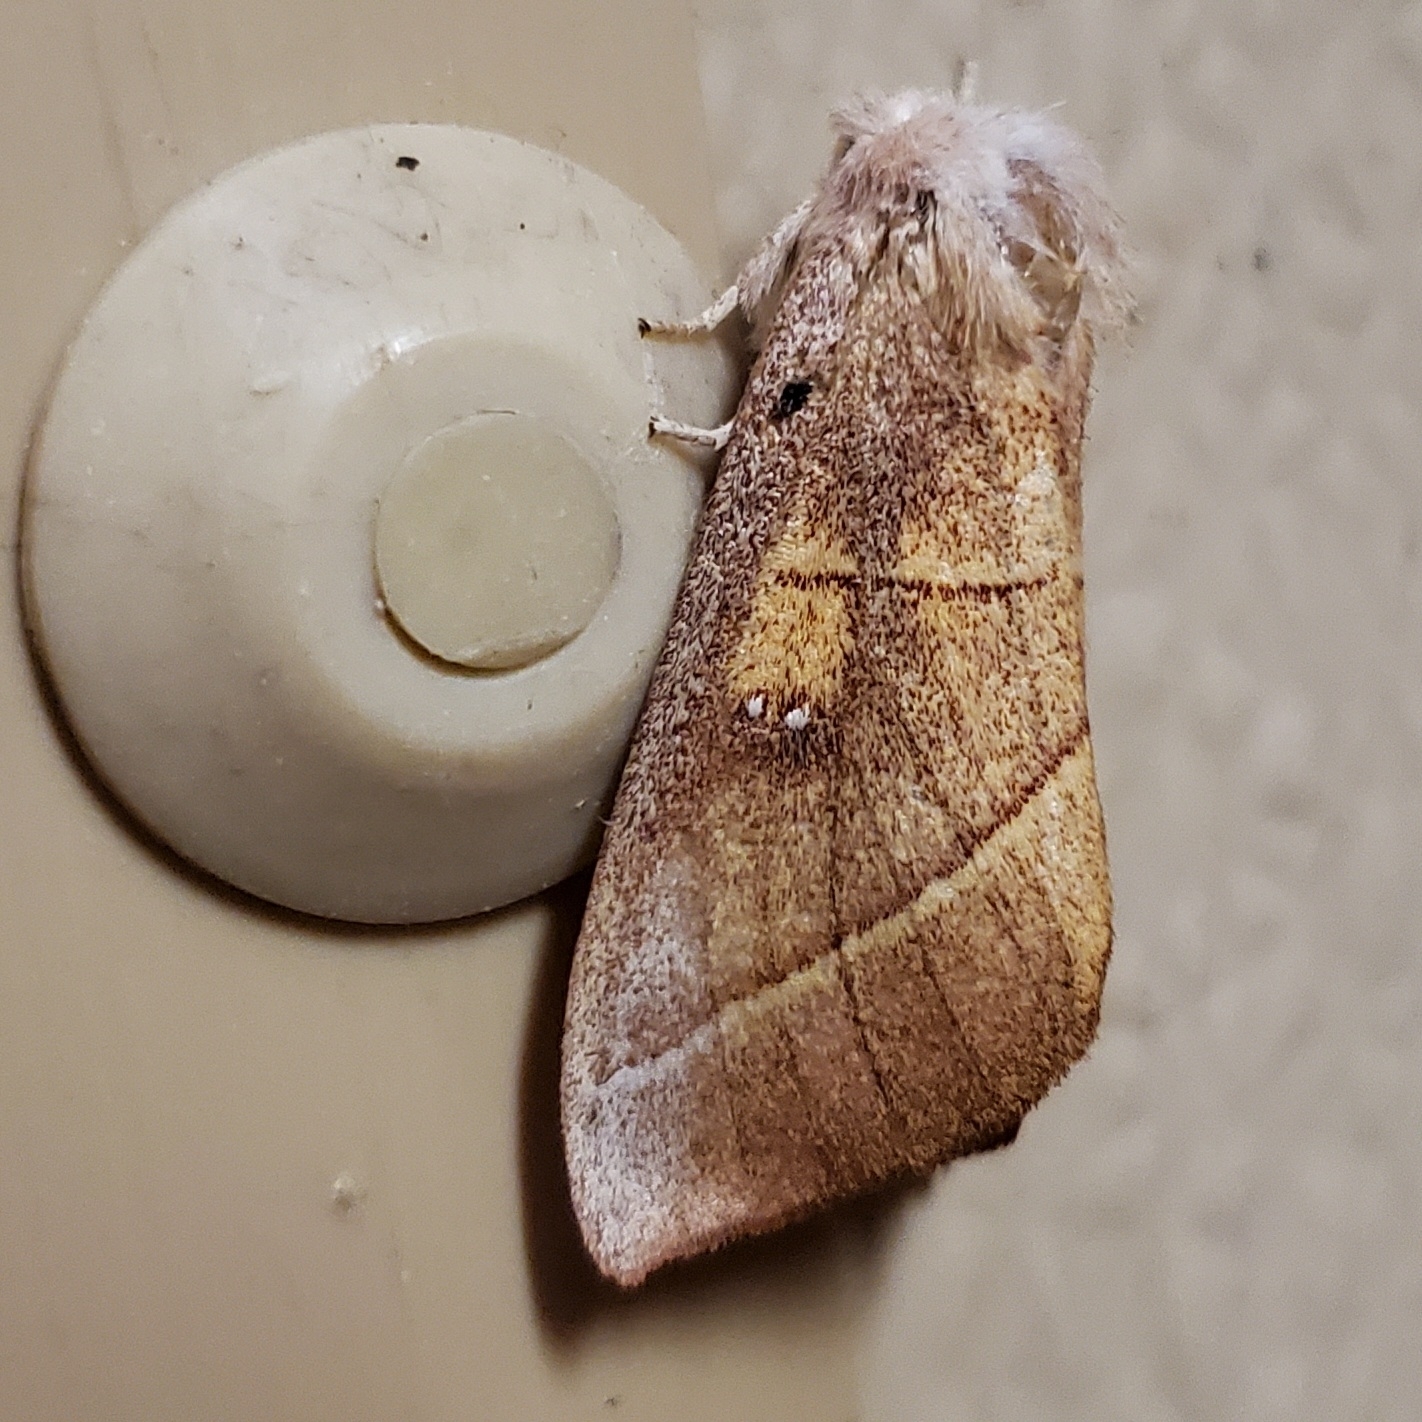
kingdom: Animalia
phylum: Arthropoda
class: Insecta
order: Lepidoptera
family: Notodontidae
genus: Nadata
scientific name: Nadata gibbosa
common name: White-dotted prominent
